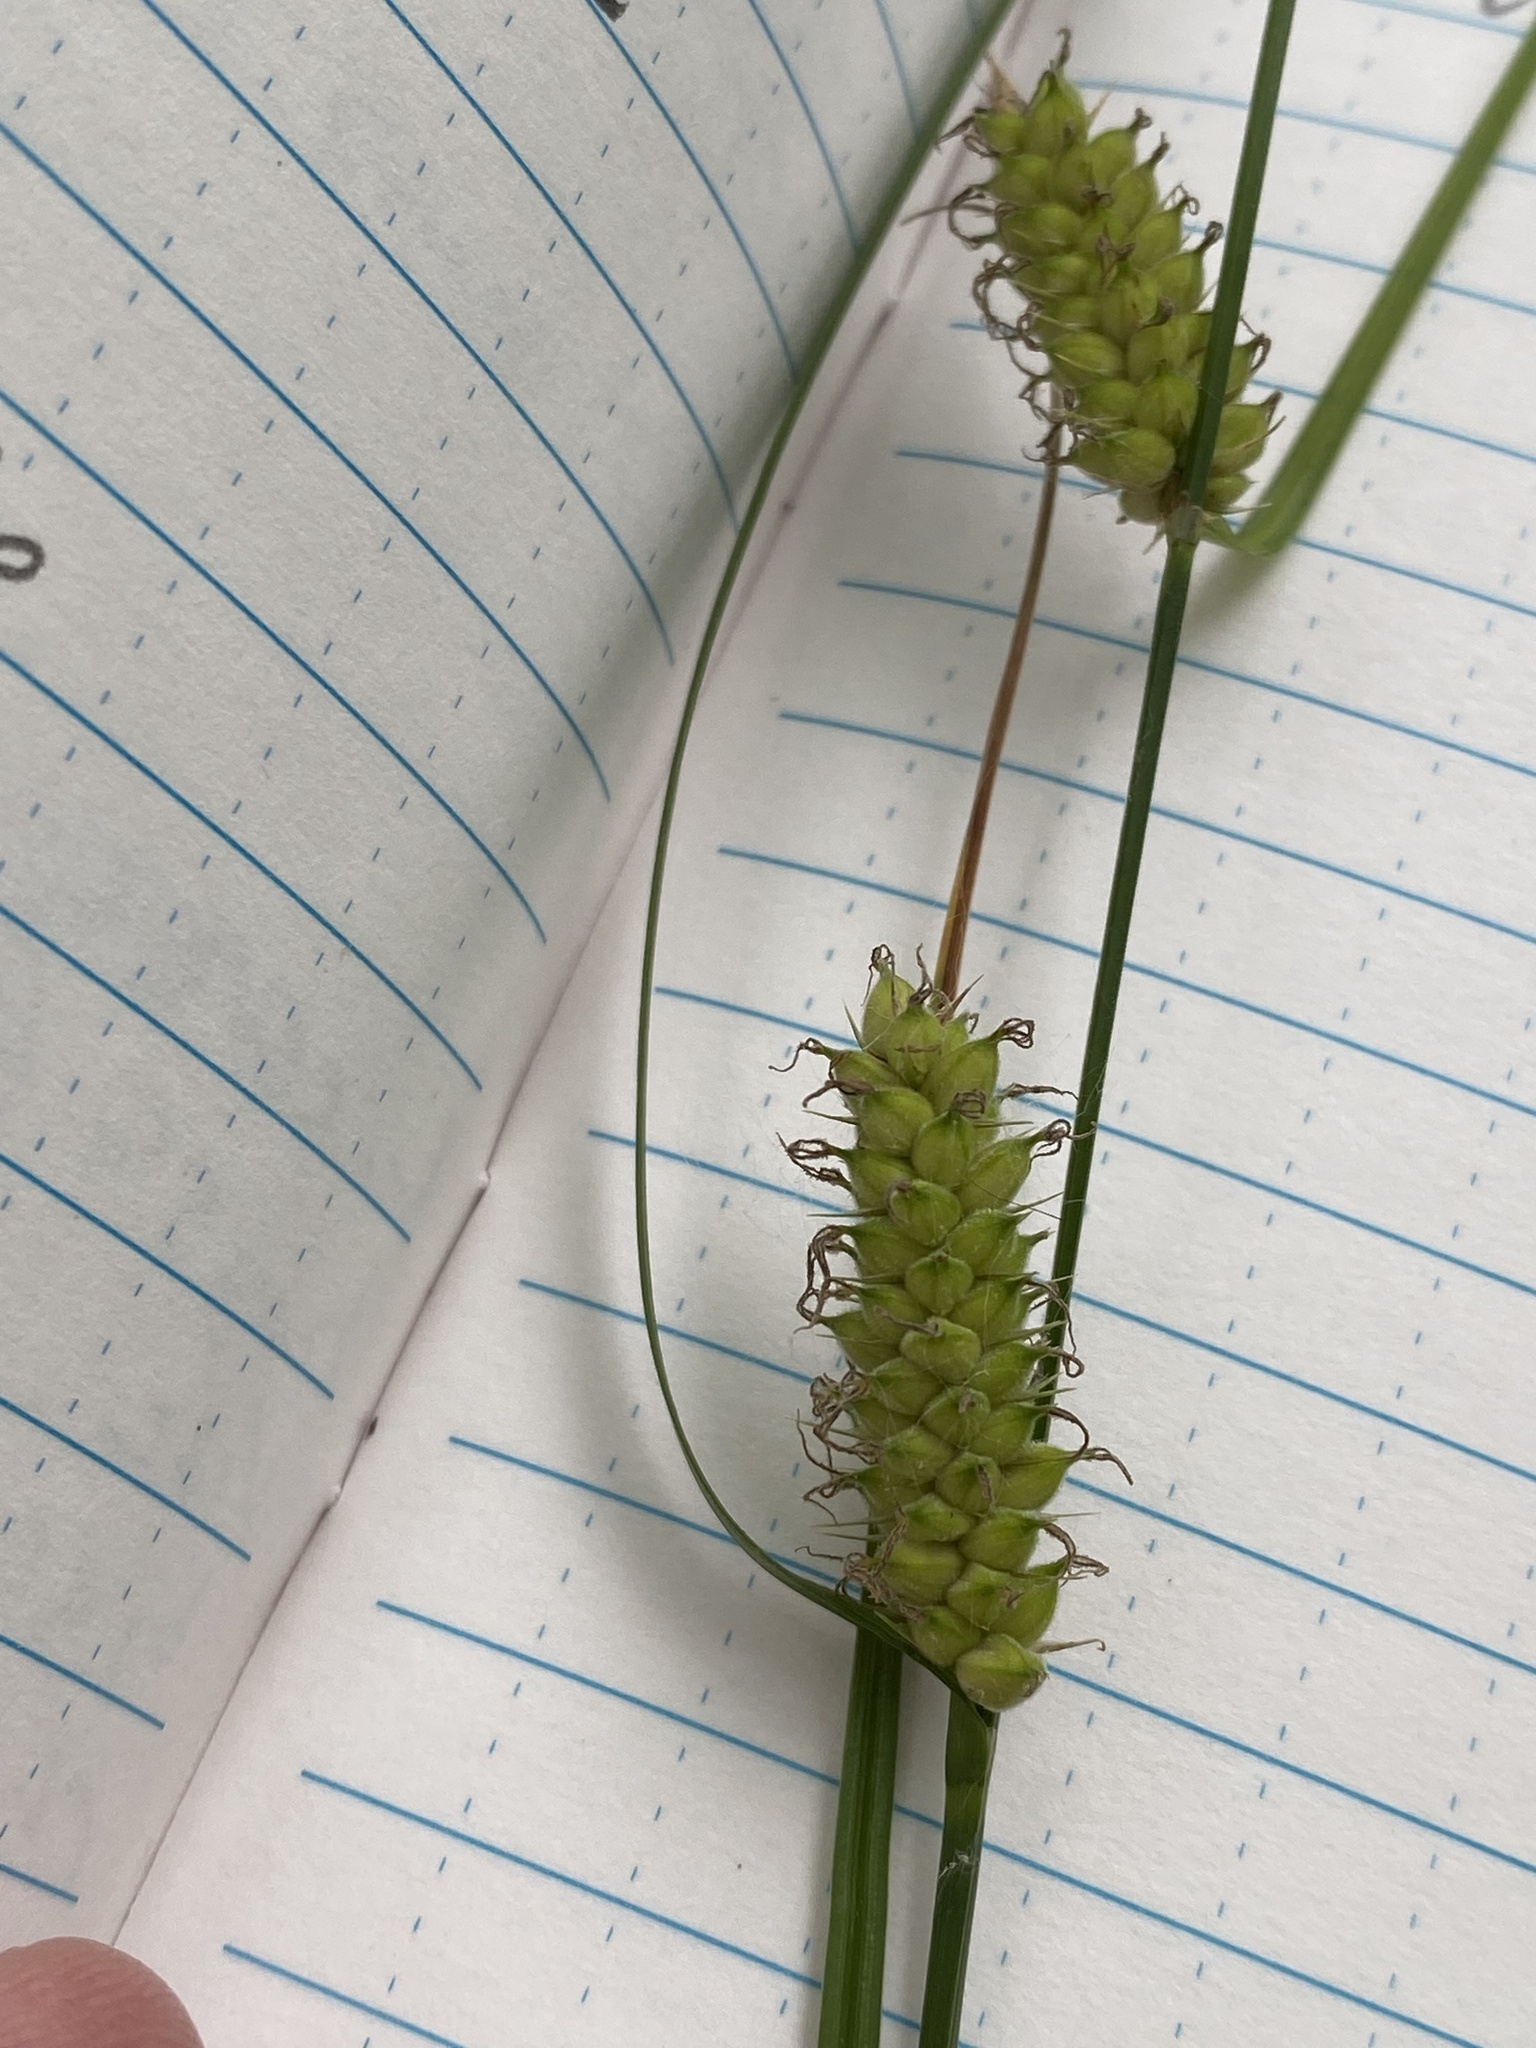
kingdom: Plantae
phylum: Tracheophyta
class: Liliopsida
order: Poales
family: Cyperaceae
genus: Carex
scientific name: Carex pellita
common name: Woolly sedge
